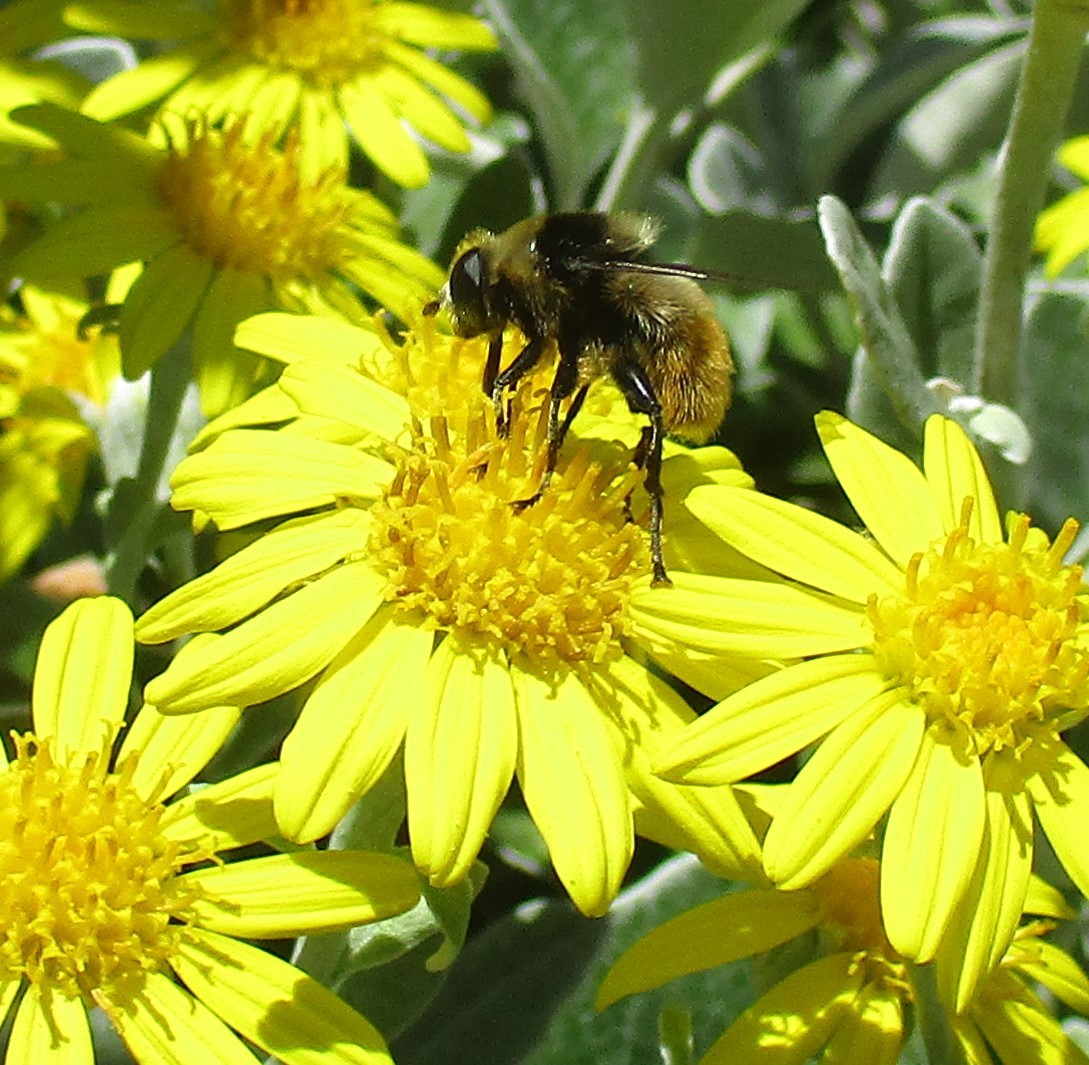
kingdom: Animalia
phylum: Arthropoda
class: Insecta
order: Diptera
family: Syrphidae
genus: Merodon
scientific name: Merodon equestris
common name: Greater bulb-fly
